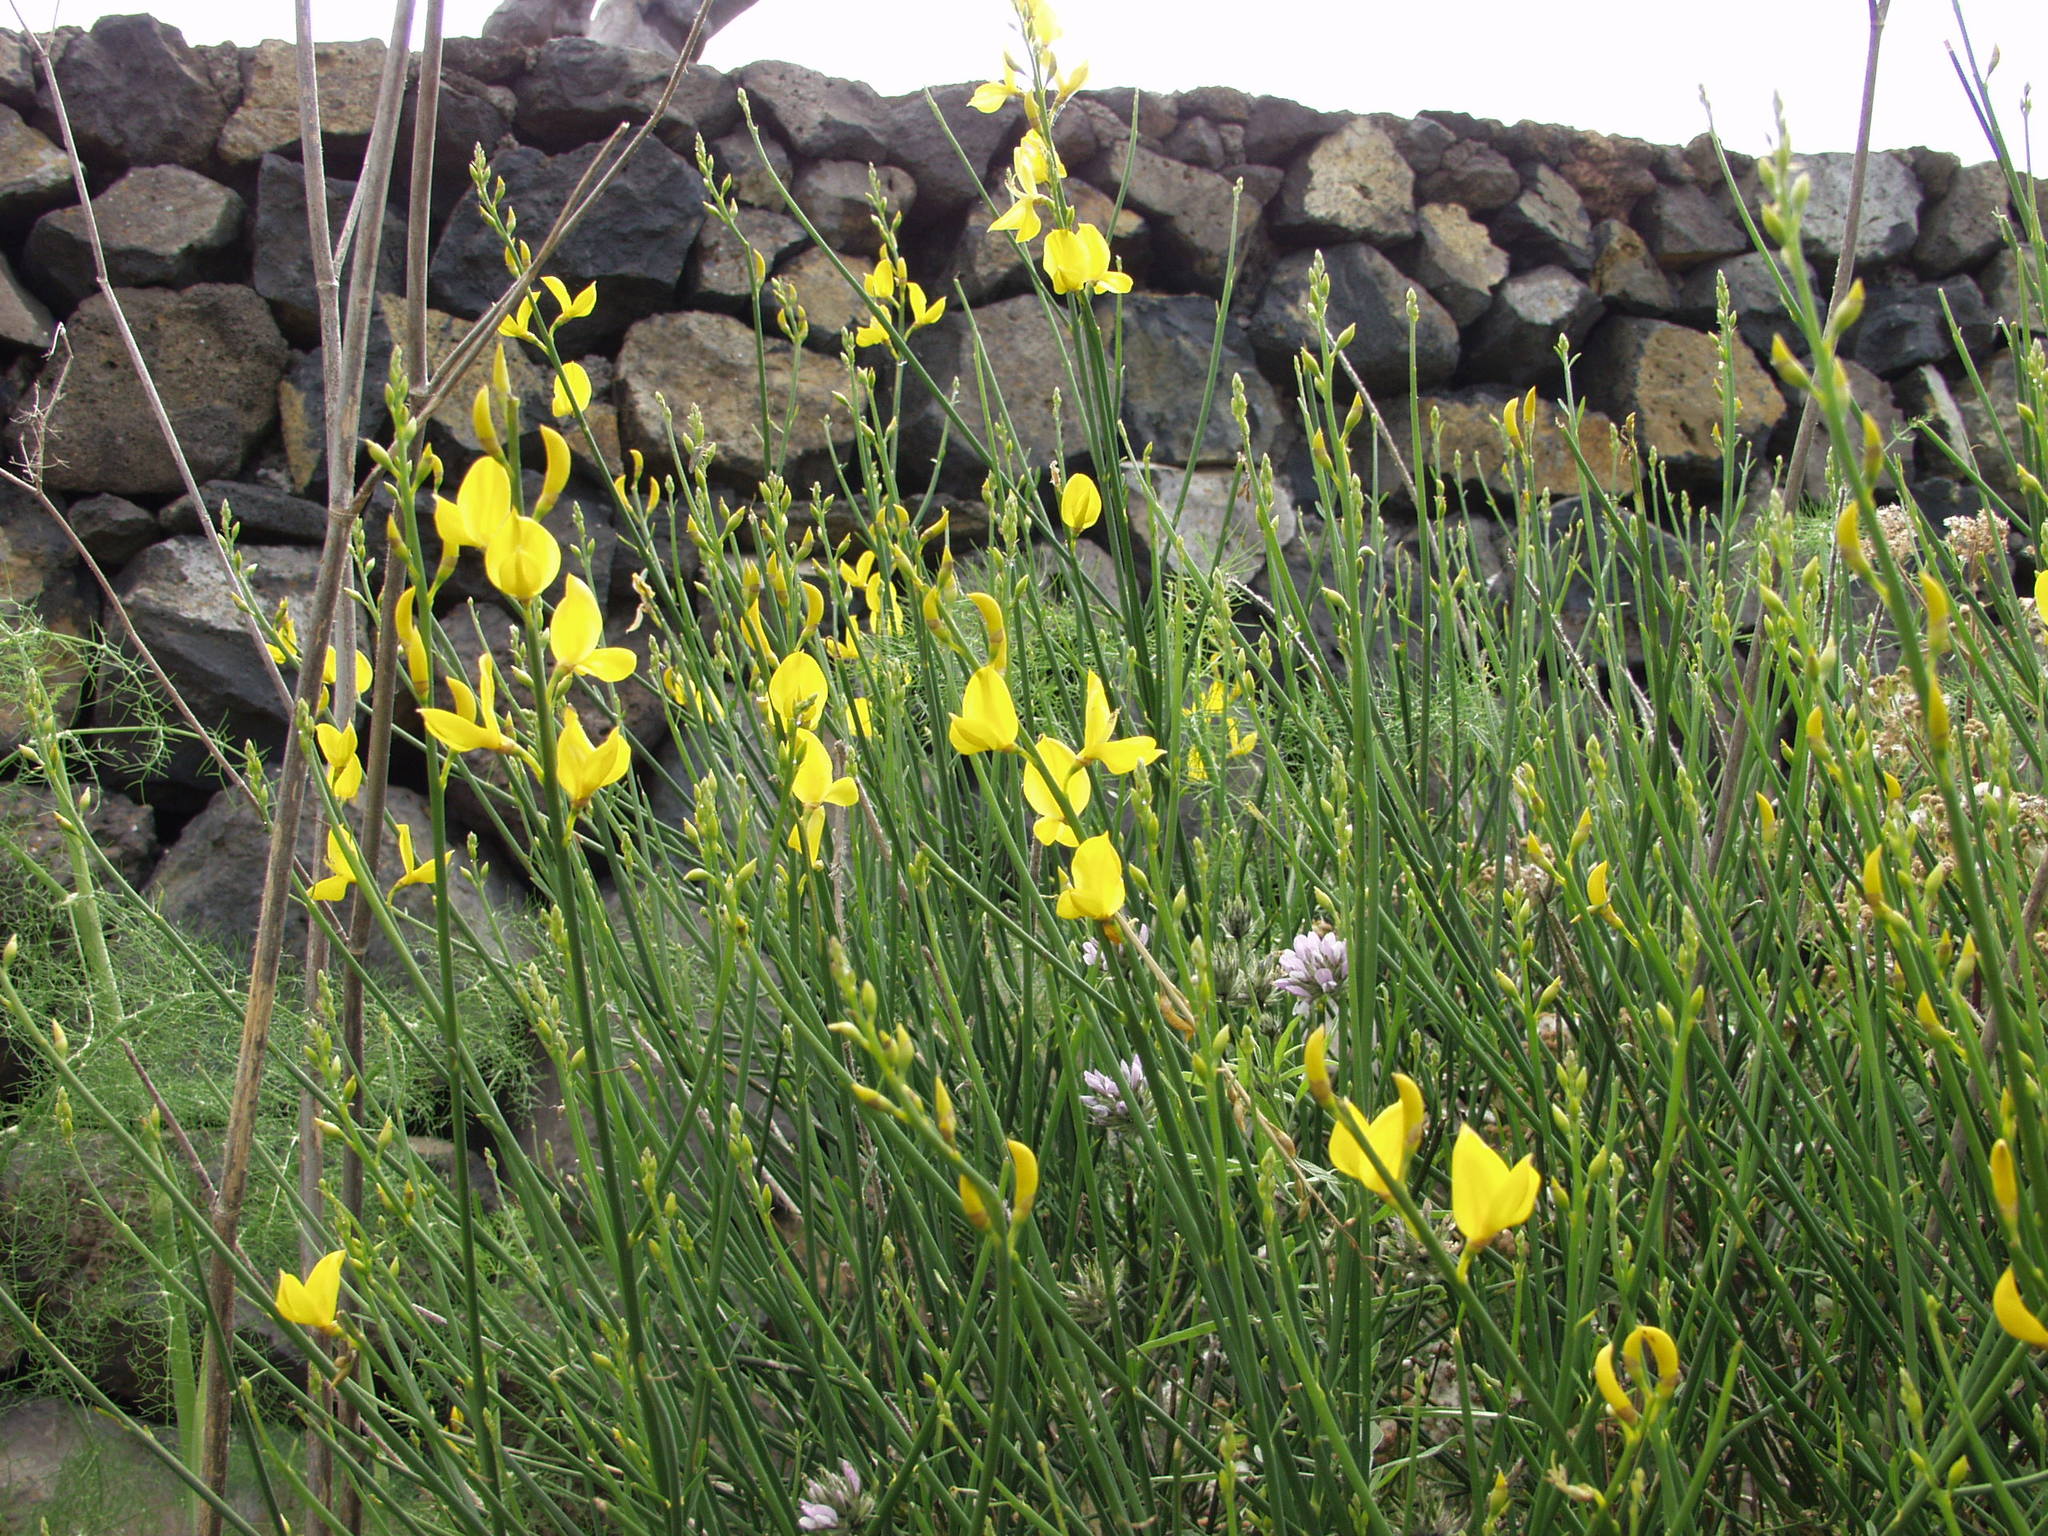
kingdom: Plantae
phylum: Tracheophyta
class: Magnoliopsida
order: Fabales
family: Fabaceae
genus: Spartium
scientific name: Spartium junceum
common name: Spanish broom
